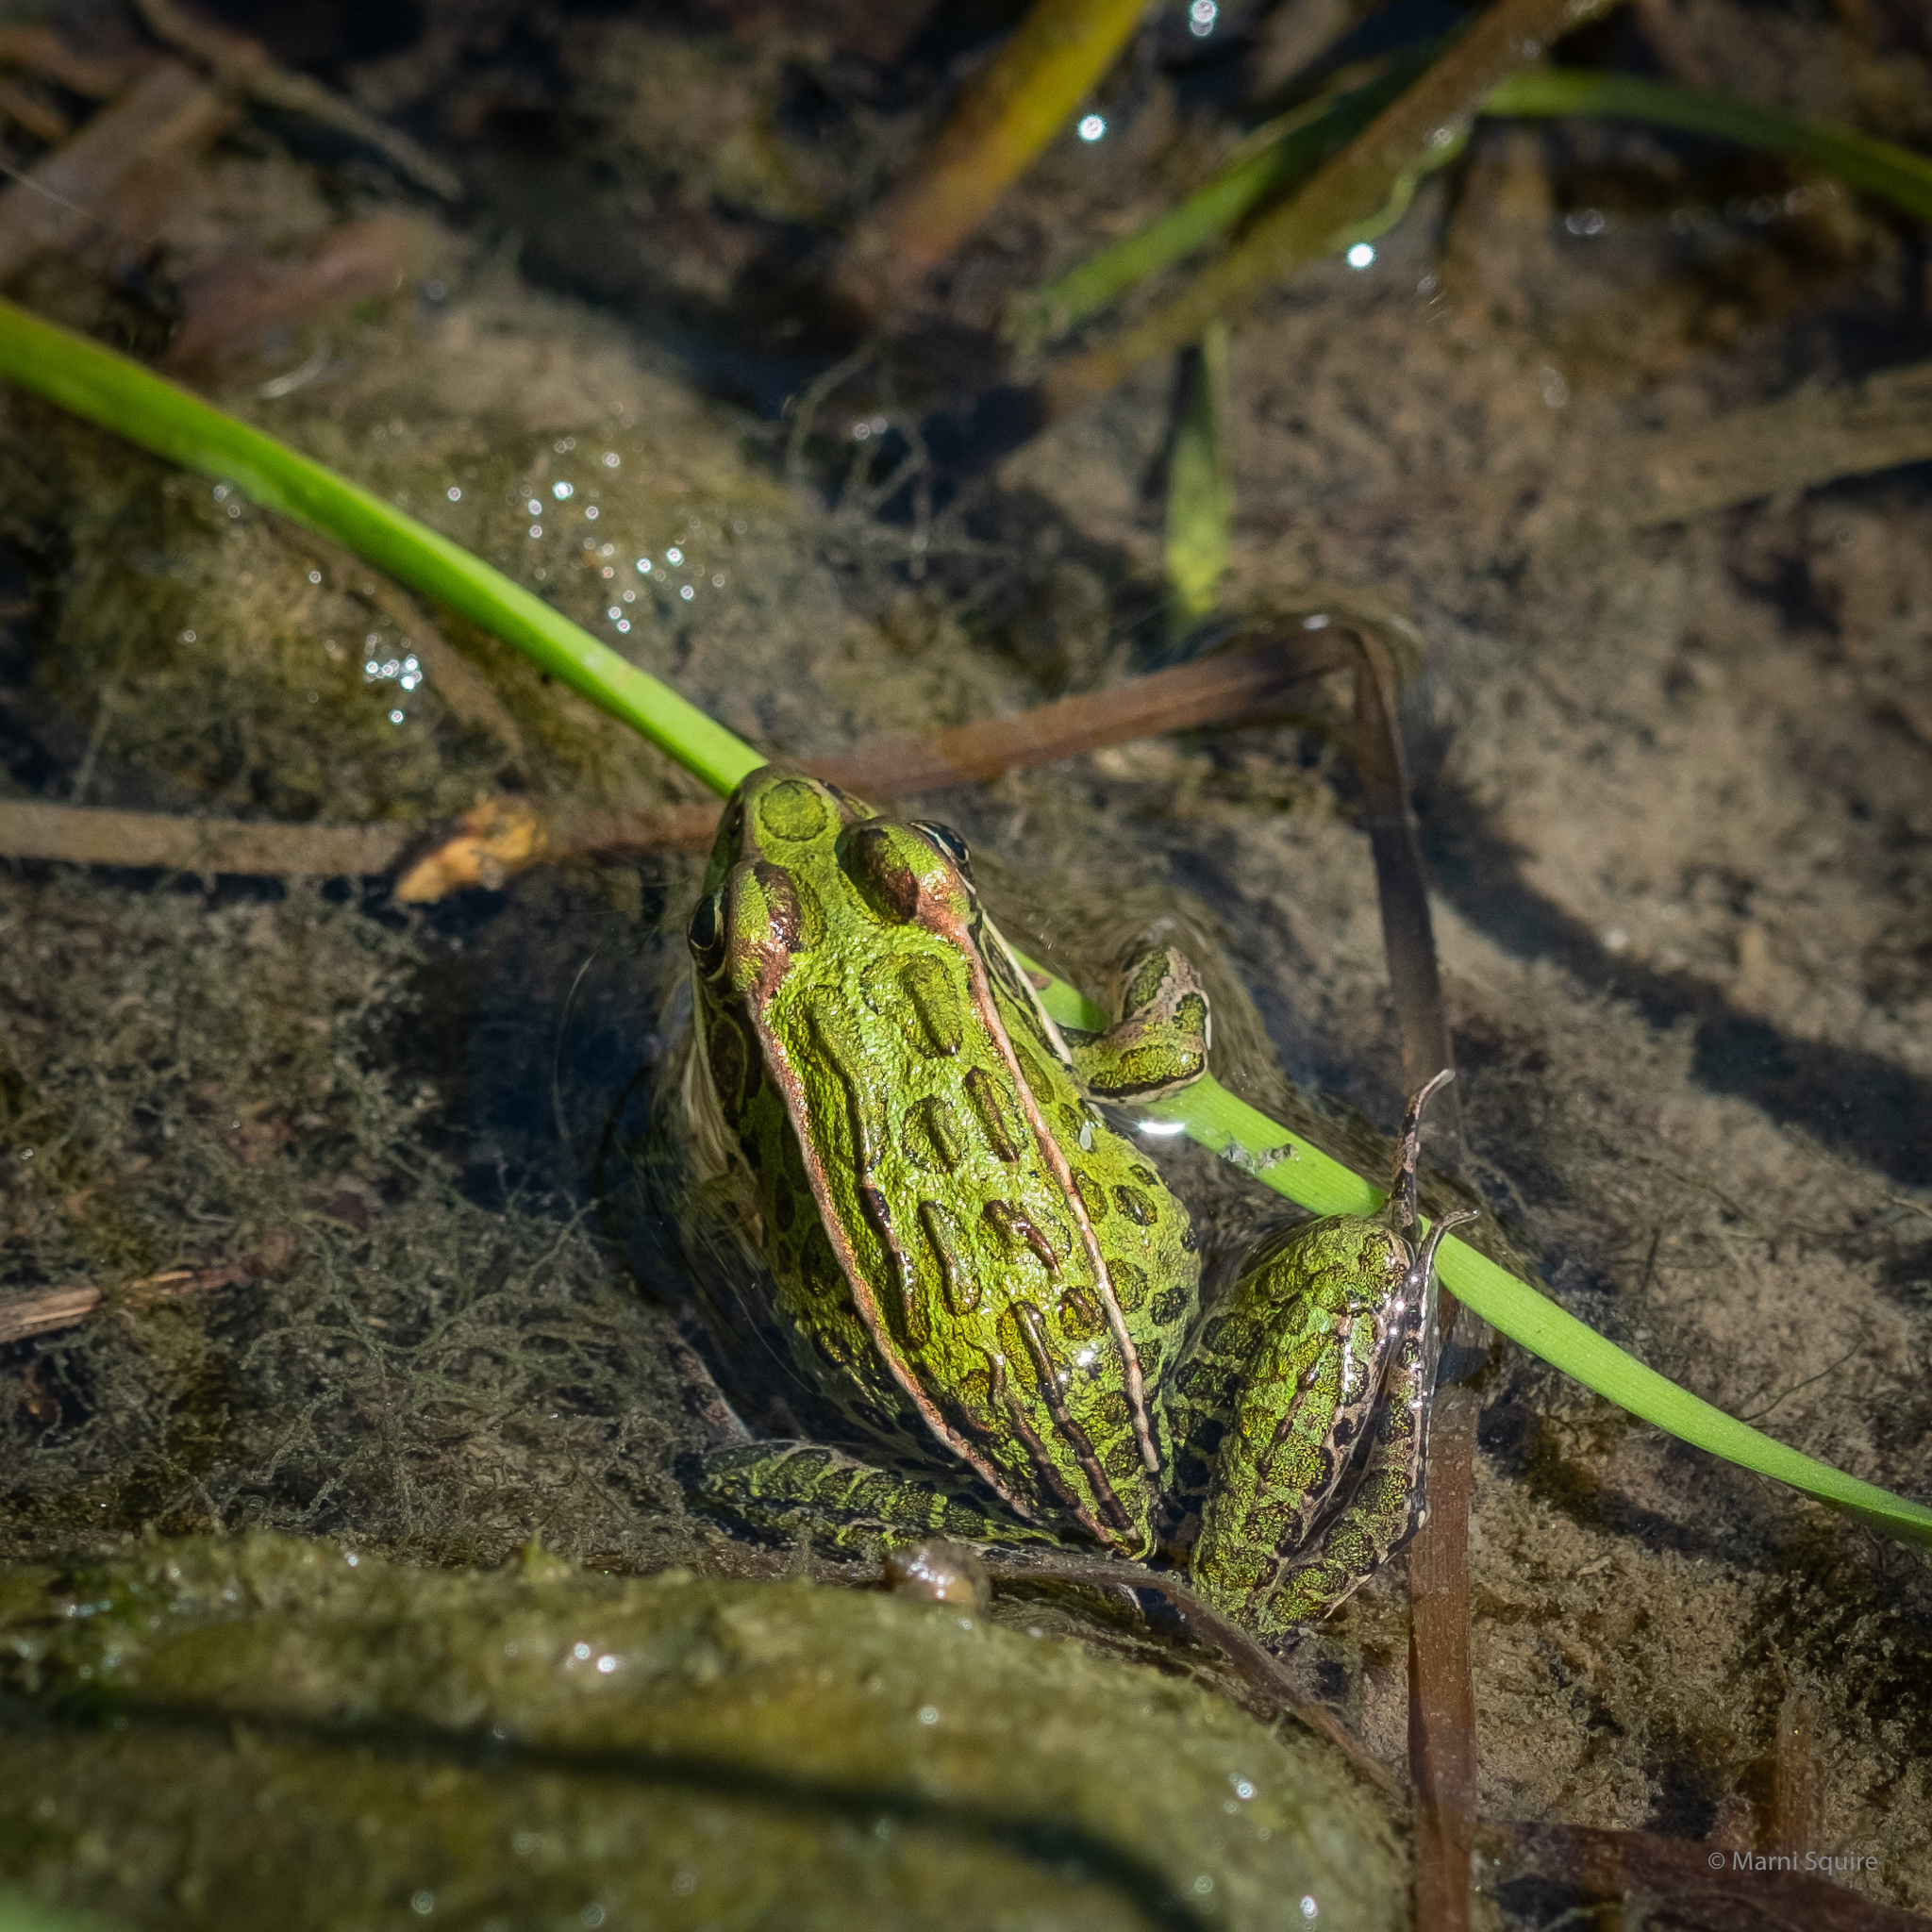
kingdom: Animalia
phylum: Chordata
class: Amphibia
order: Anura
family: Ranidae
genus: Lithobates
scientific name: Lithobates pipiens
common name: Northern leopard frog
